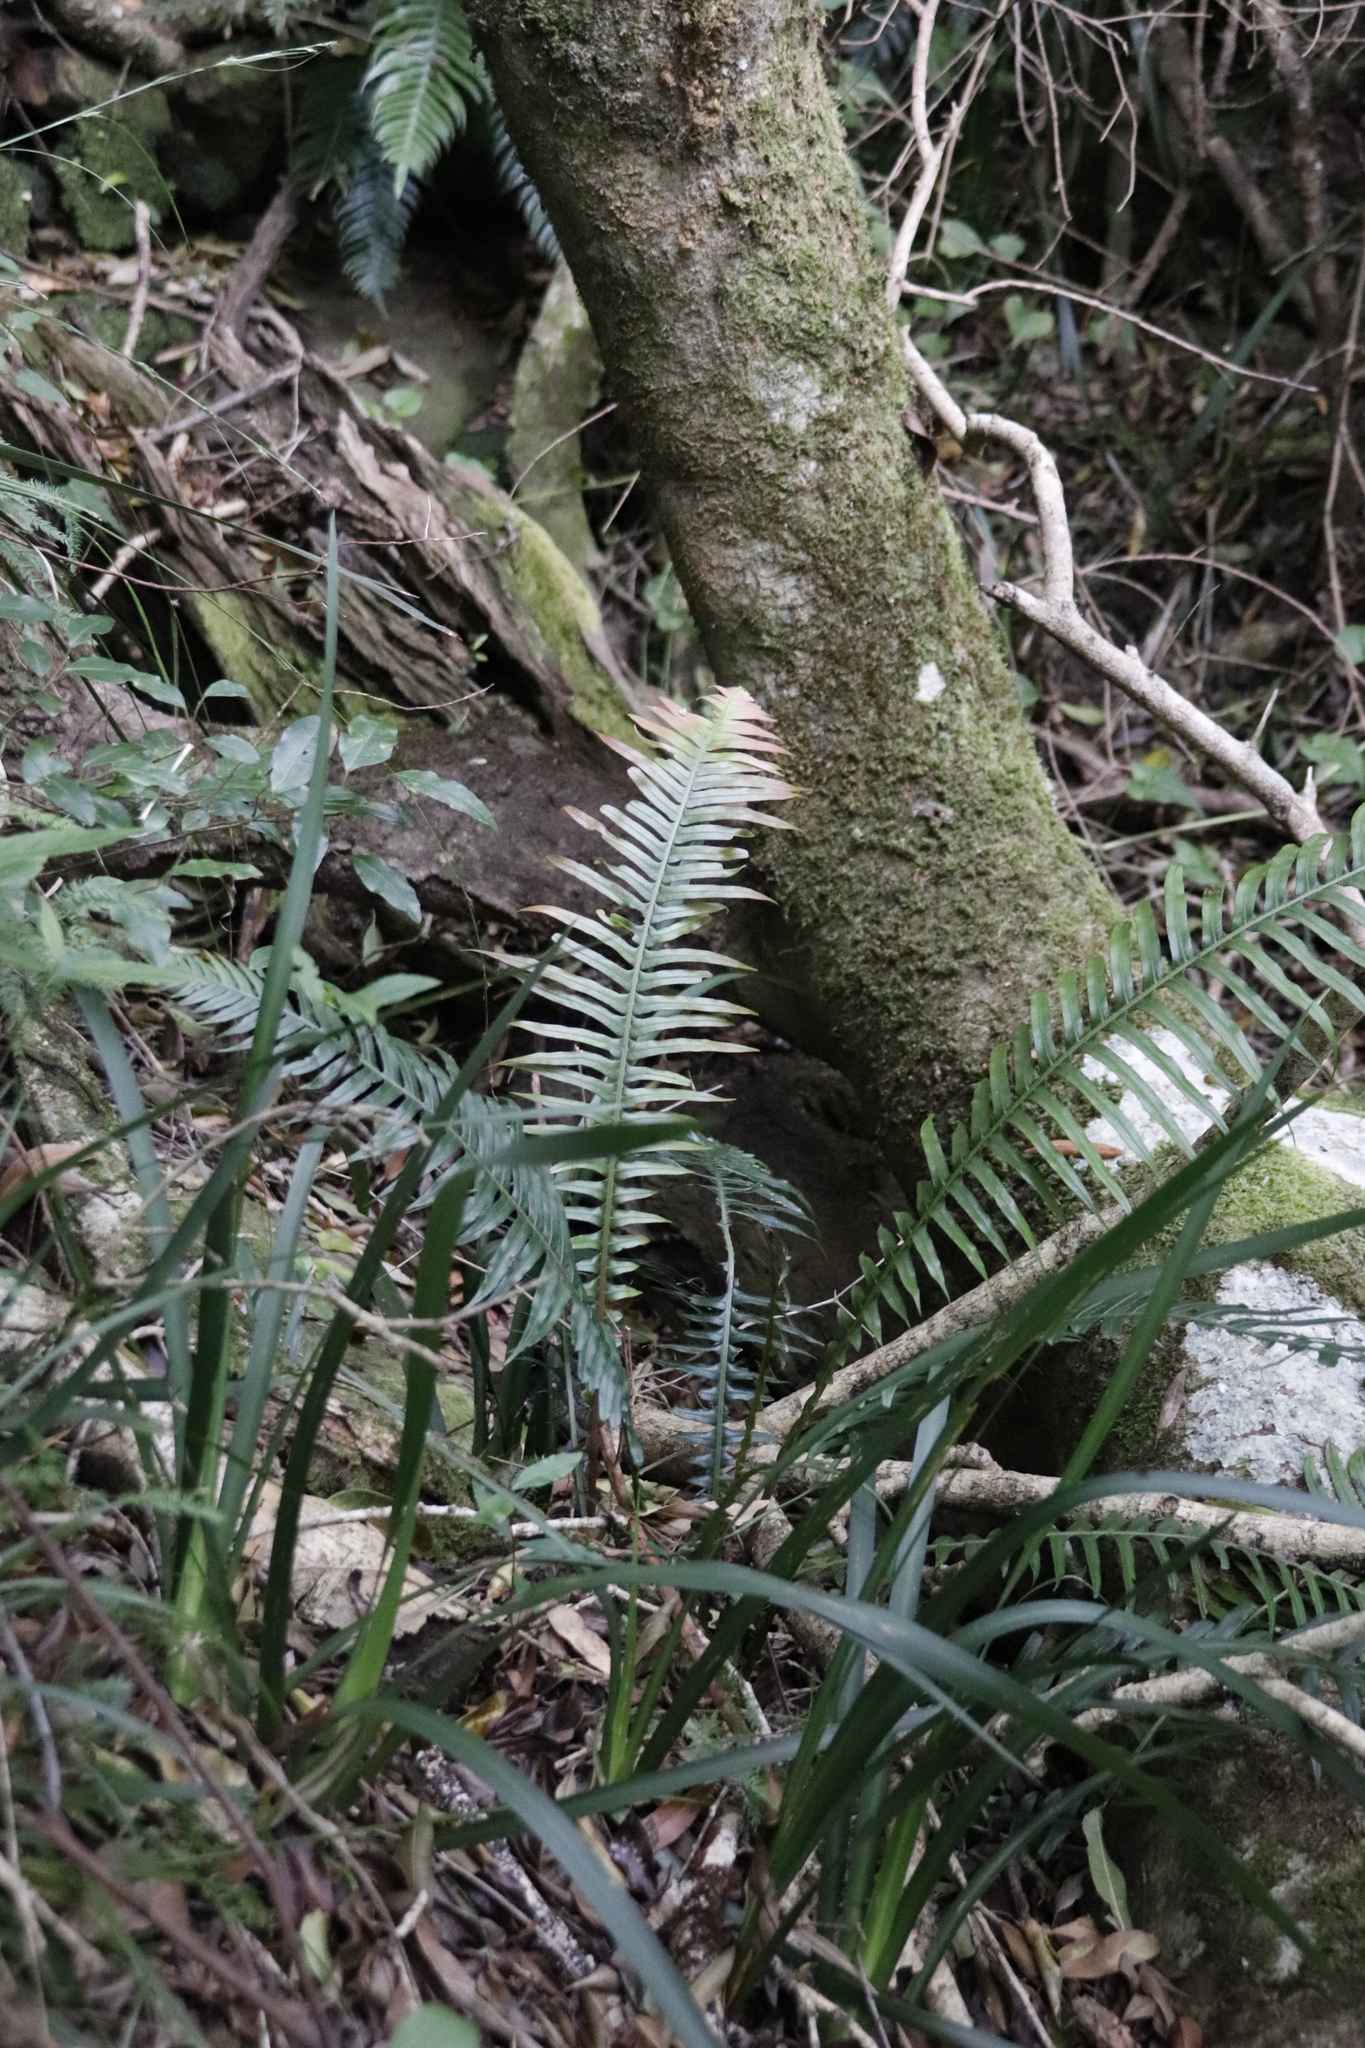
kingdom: Plantae
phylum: Tracheophyta
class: Polypodiopsida
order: Polypodiales
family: Blechnaceae
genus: Lomaridium
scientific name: Lomaridium attenuatum
